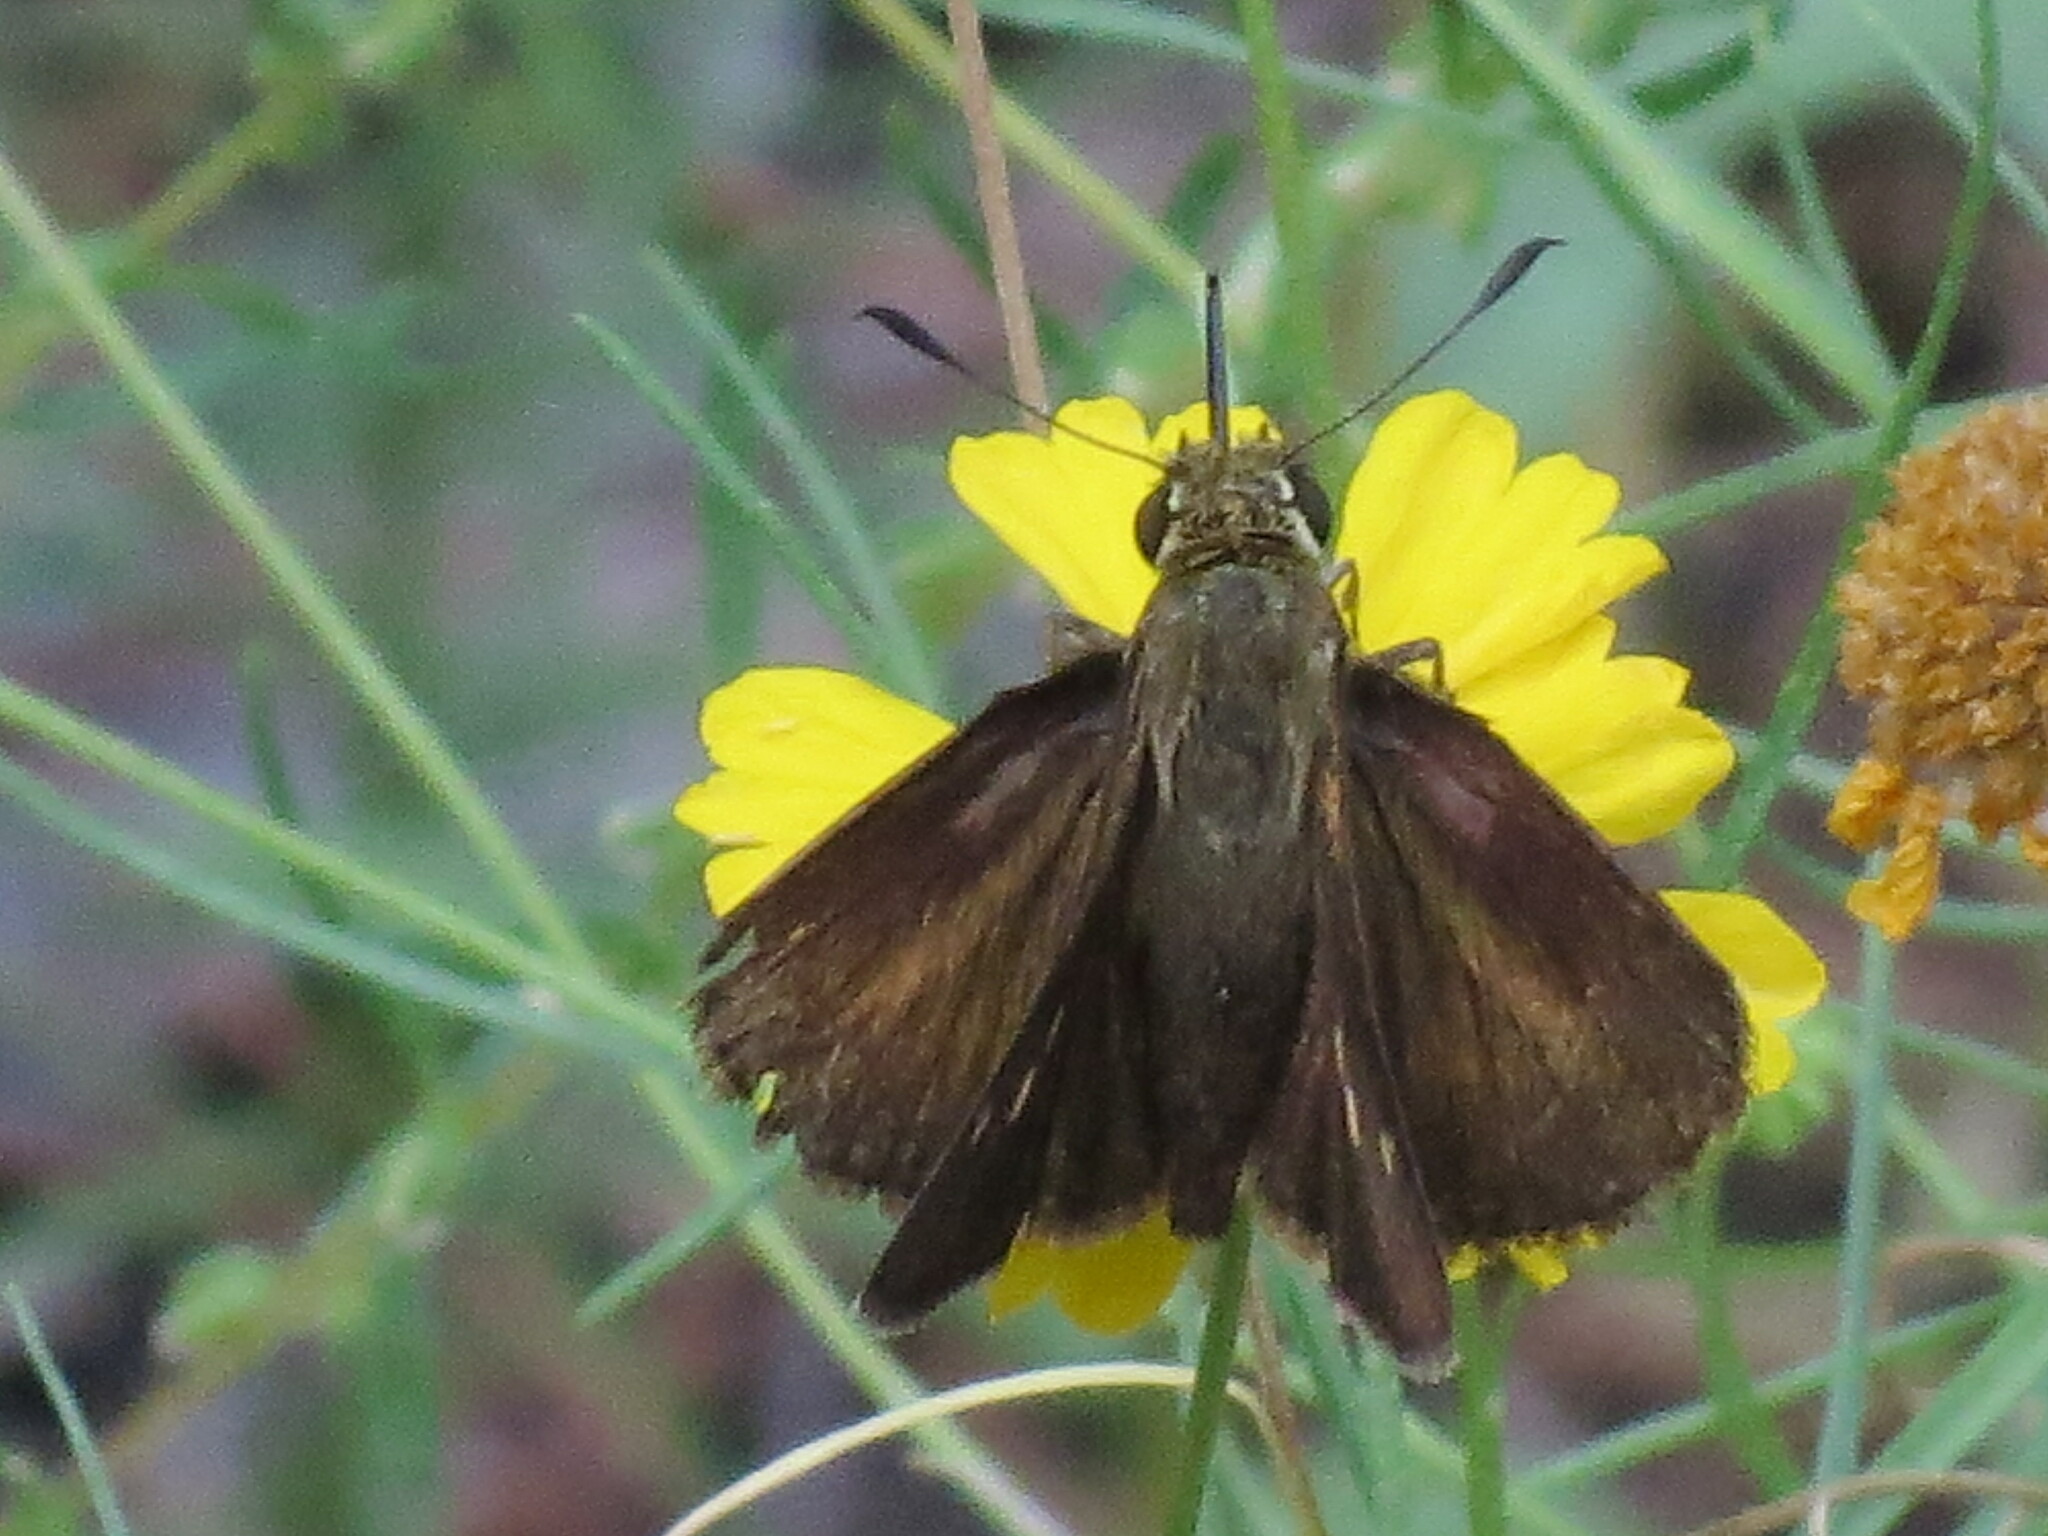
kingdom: Animalia
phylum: Arthropoda
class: Insecta
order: Lepidoptera
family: Hesperiidae
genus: Euphyes
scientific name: Euphyes vestris
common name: Dun skipper
